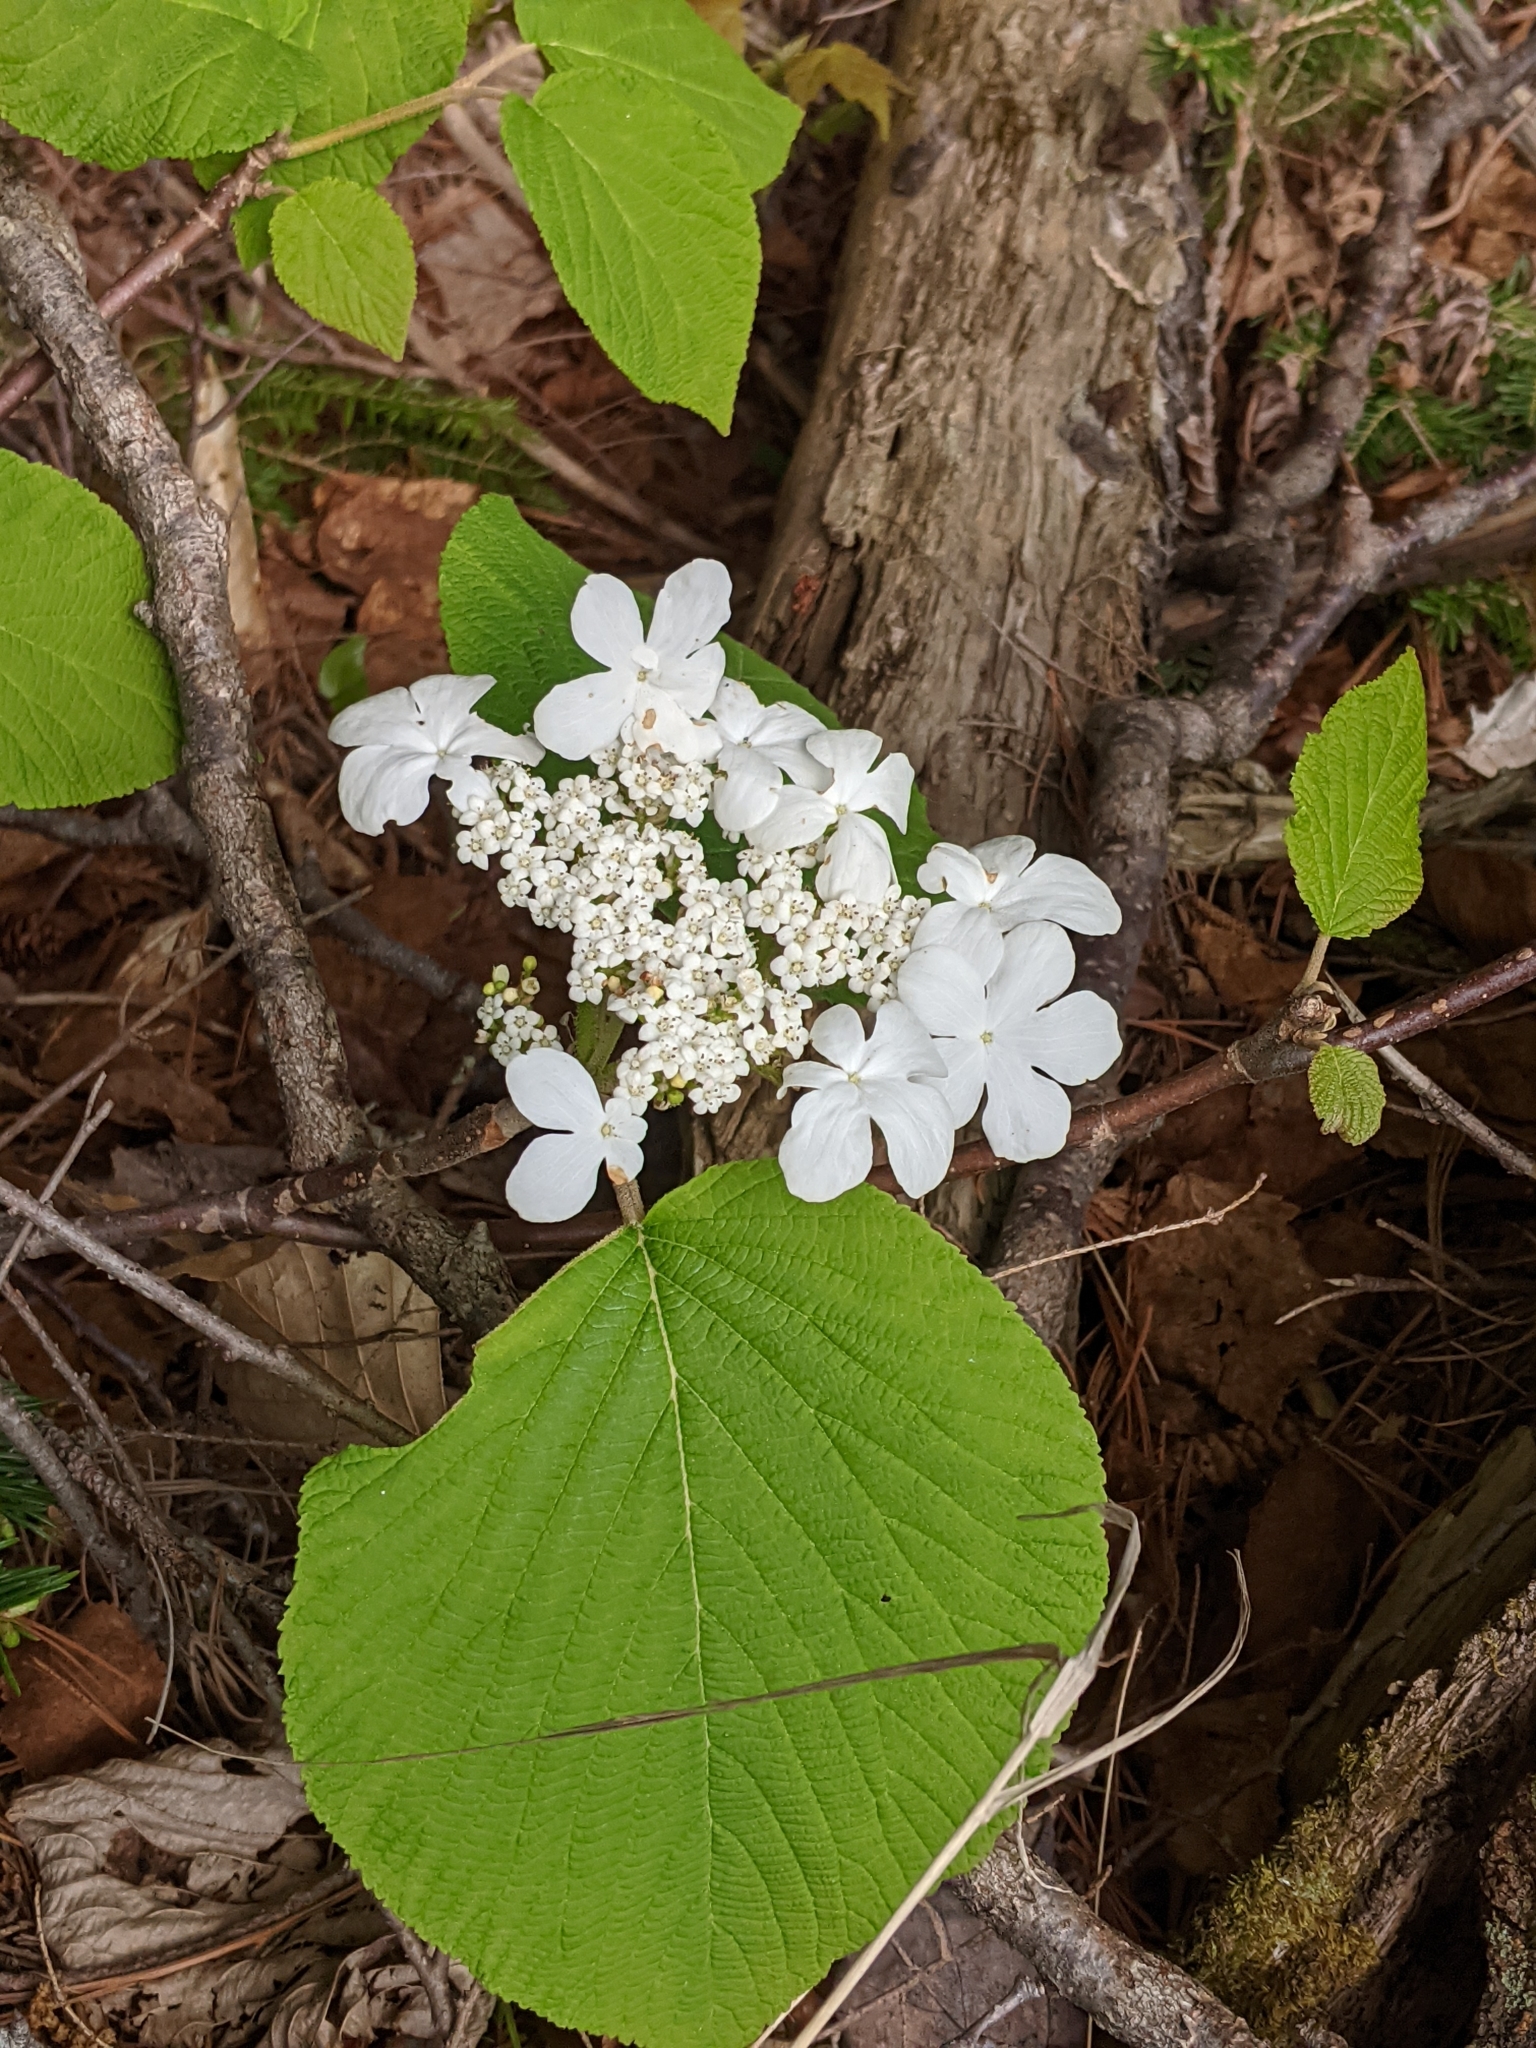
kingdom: Plantae
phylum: Tracheophyta
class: Magnoliopsida
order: Dipsacales
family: Viburnaceae
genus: Viburnum
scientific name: Viburnum lantanoides
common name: Hobblebush
